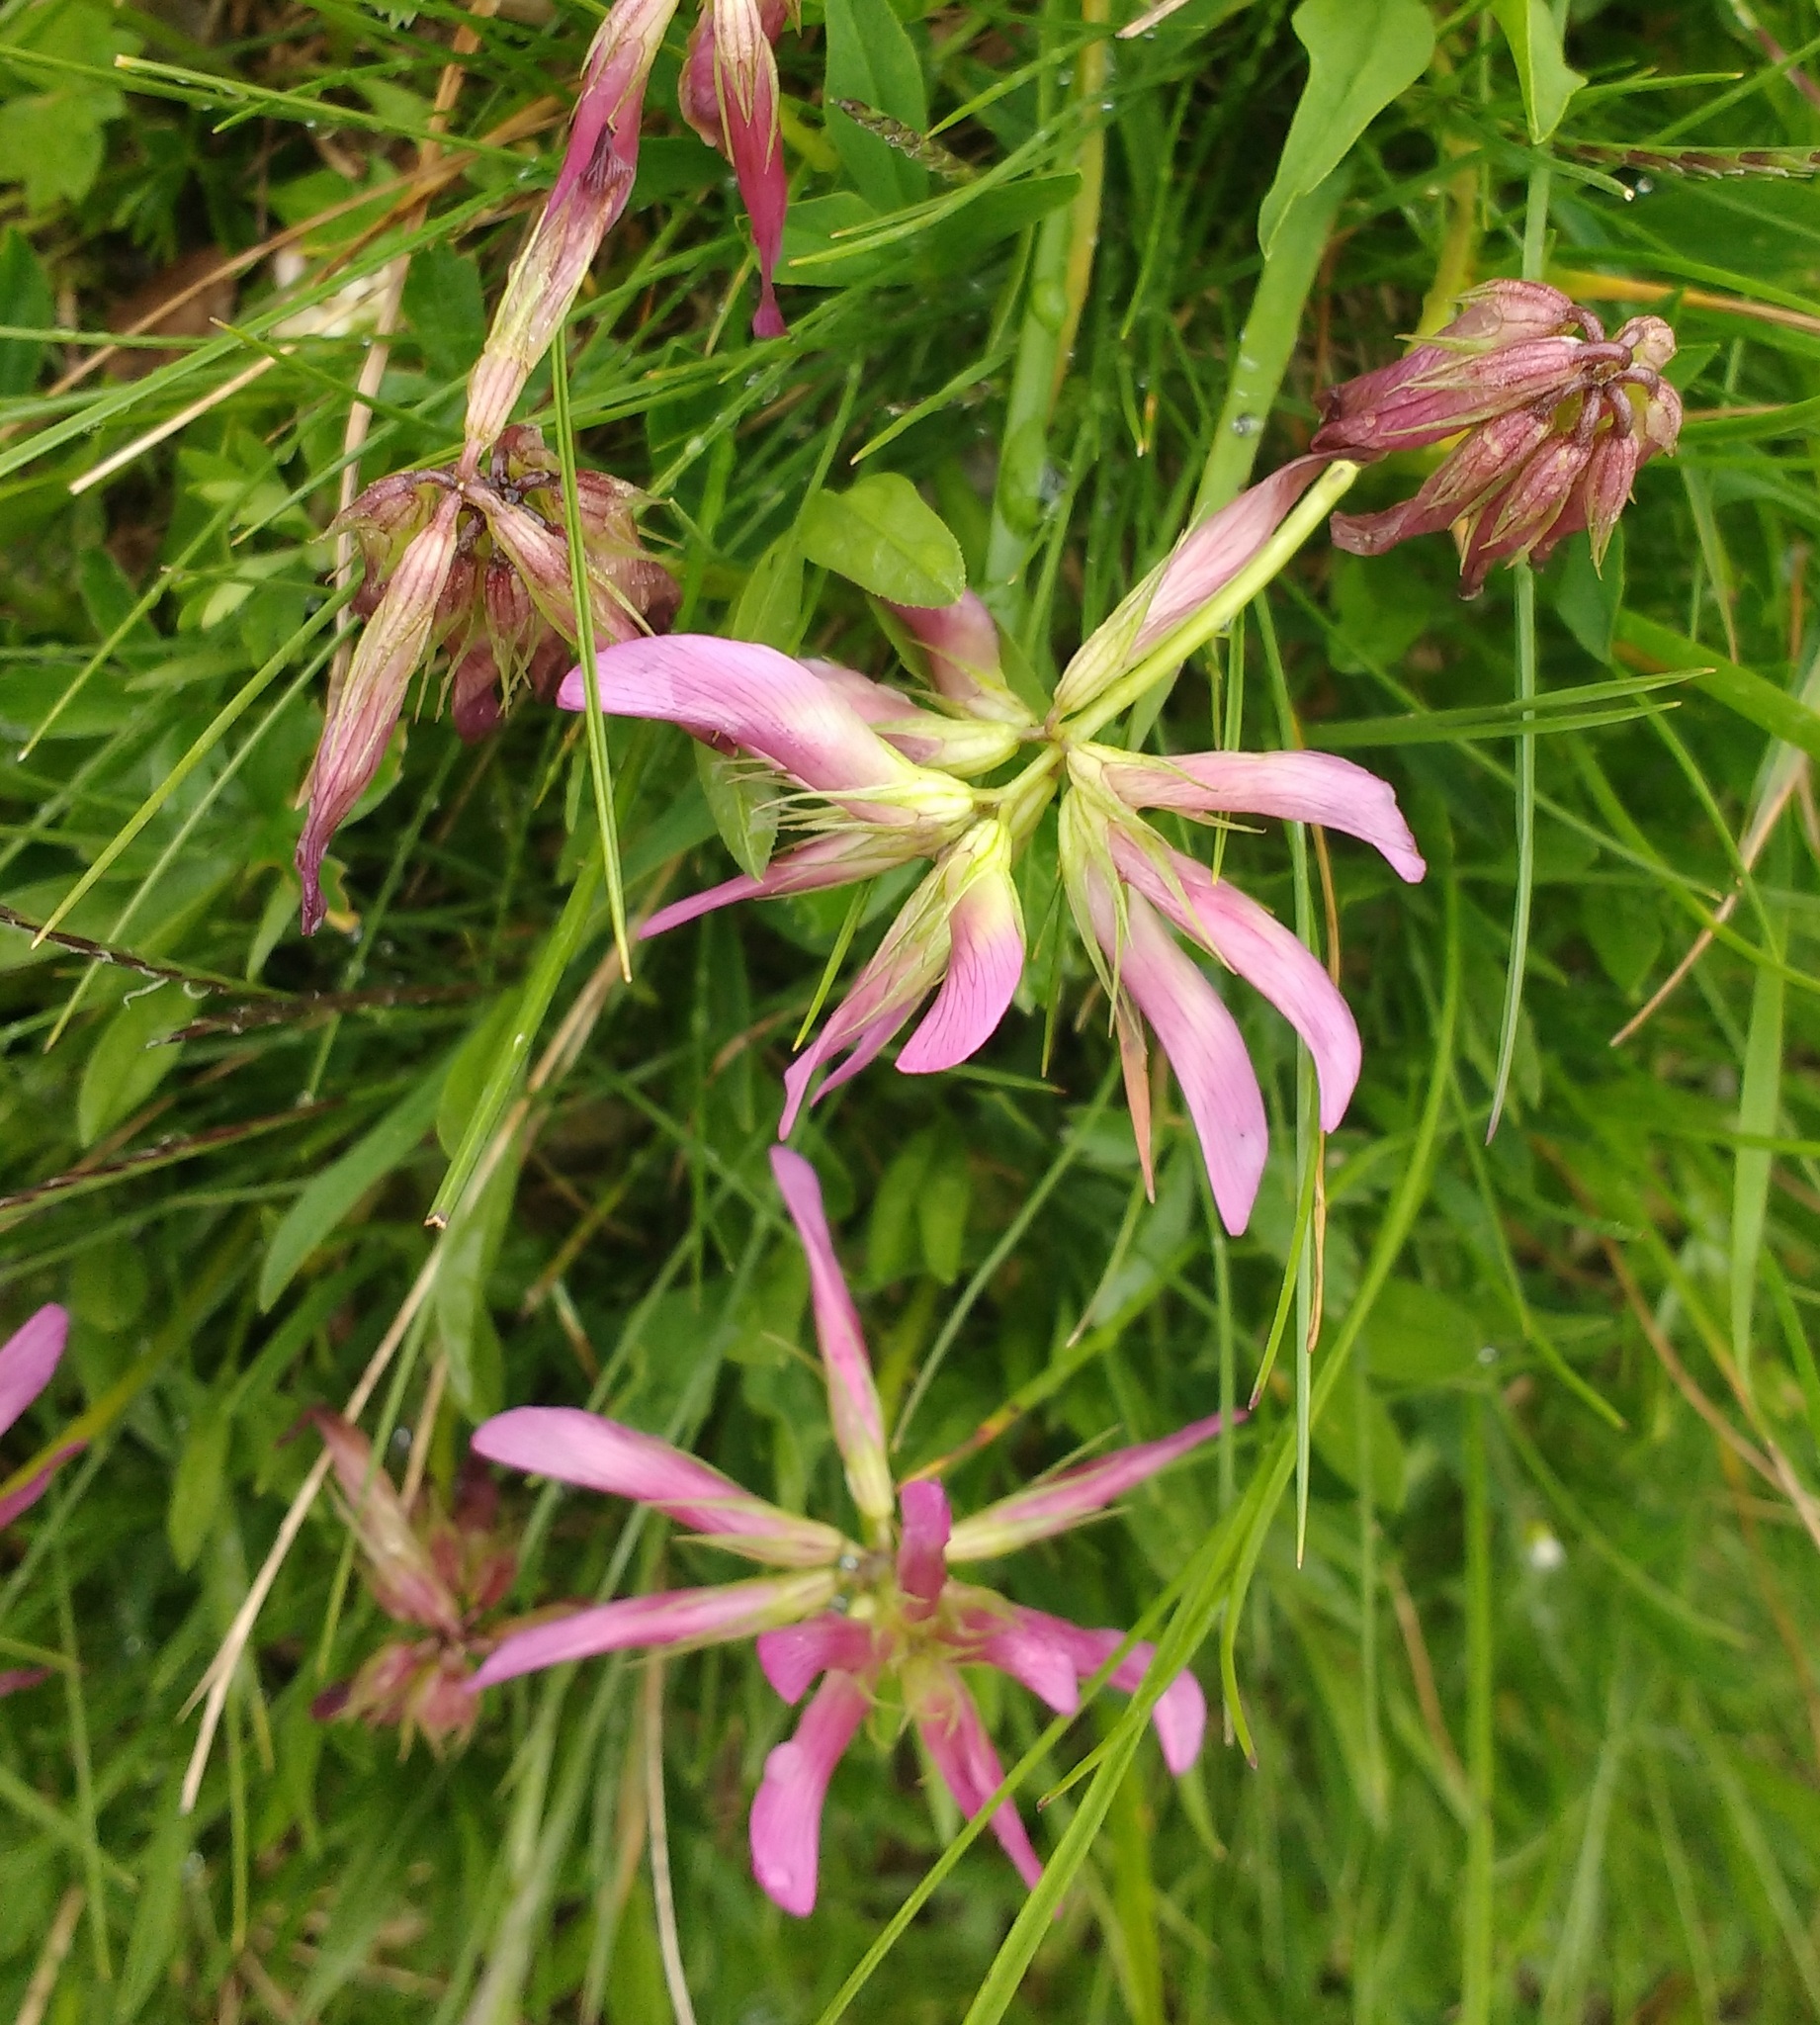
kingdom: Plantae
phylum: Tracheophyta
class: Magnoliopsida
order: Fabales
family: Fabaceae
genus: Trifolium
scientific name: Trifolium alpinum
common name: Alpine clover
